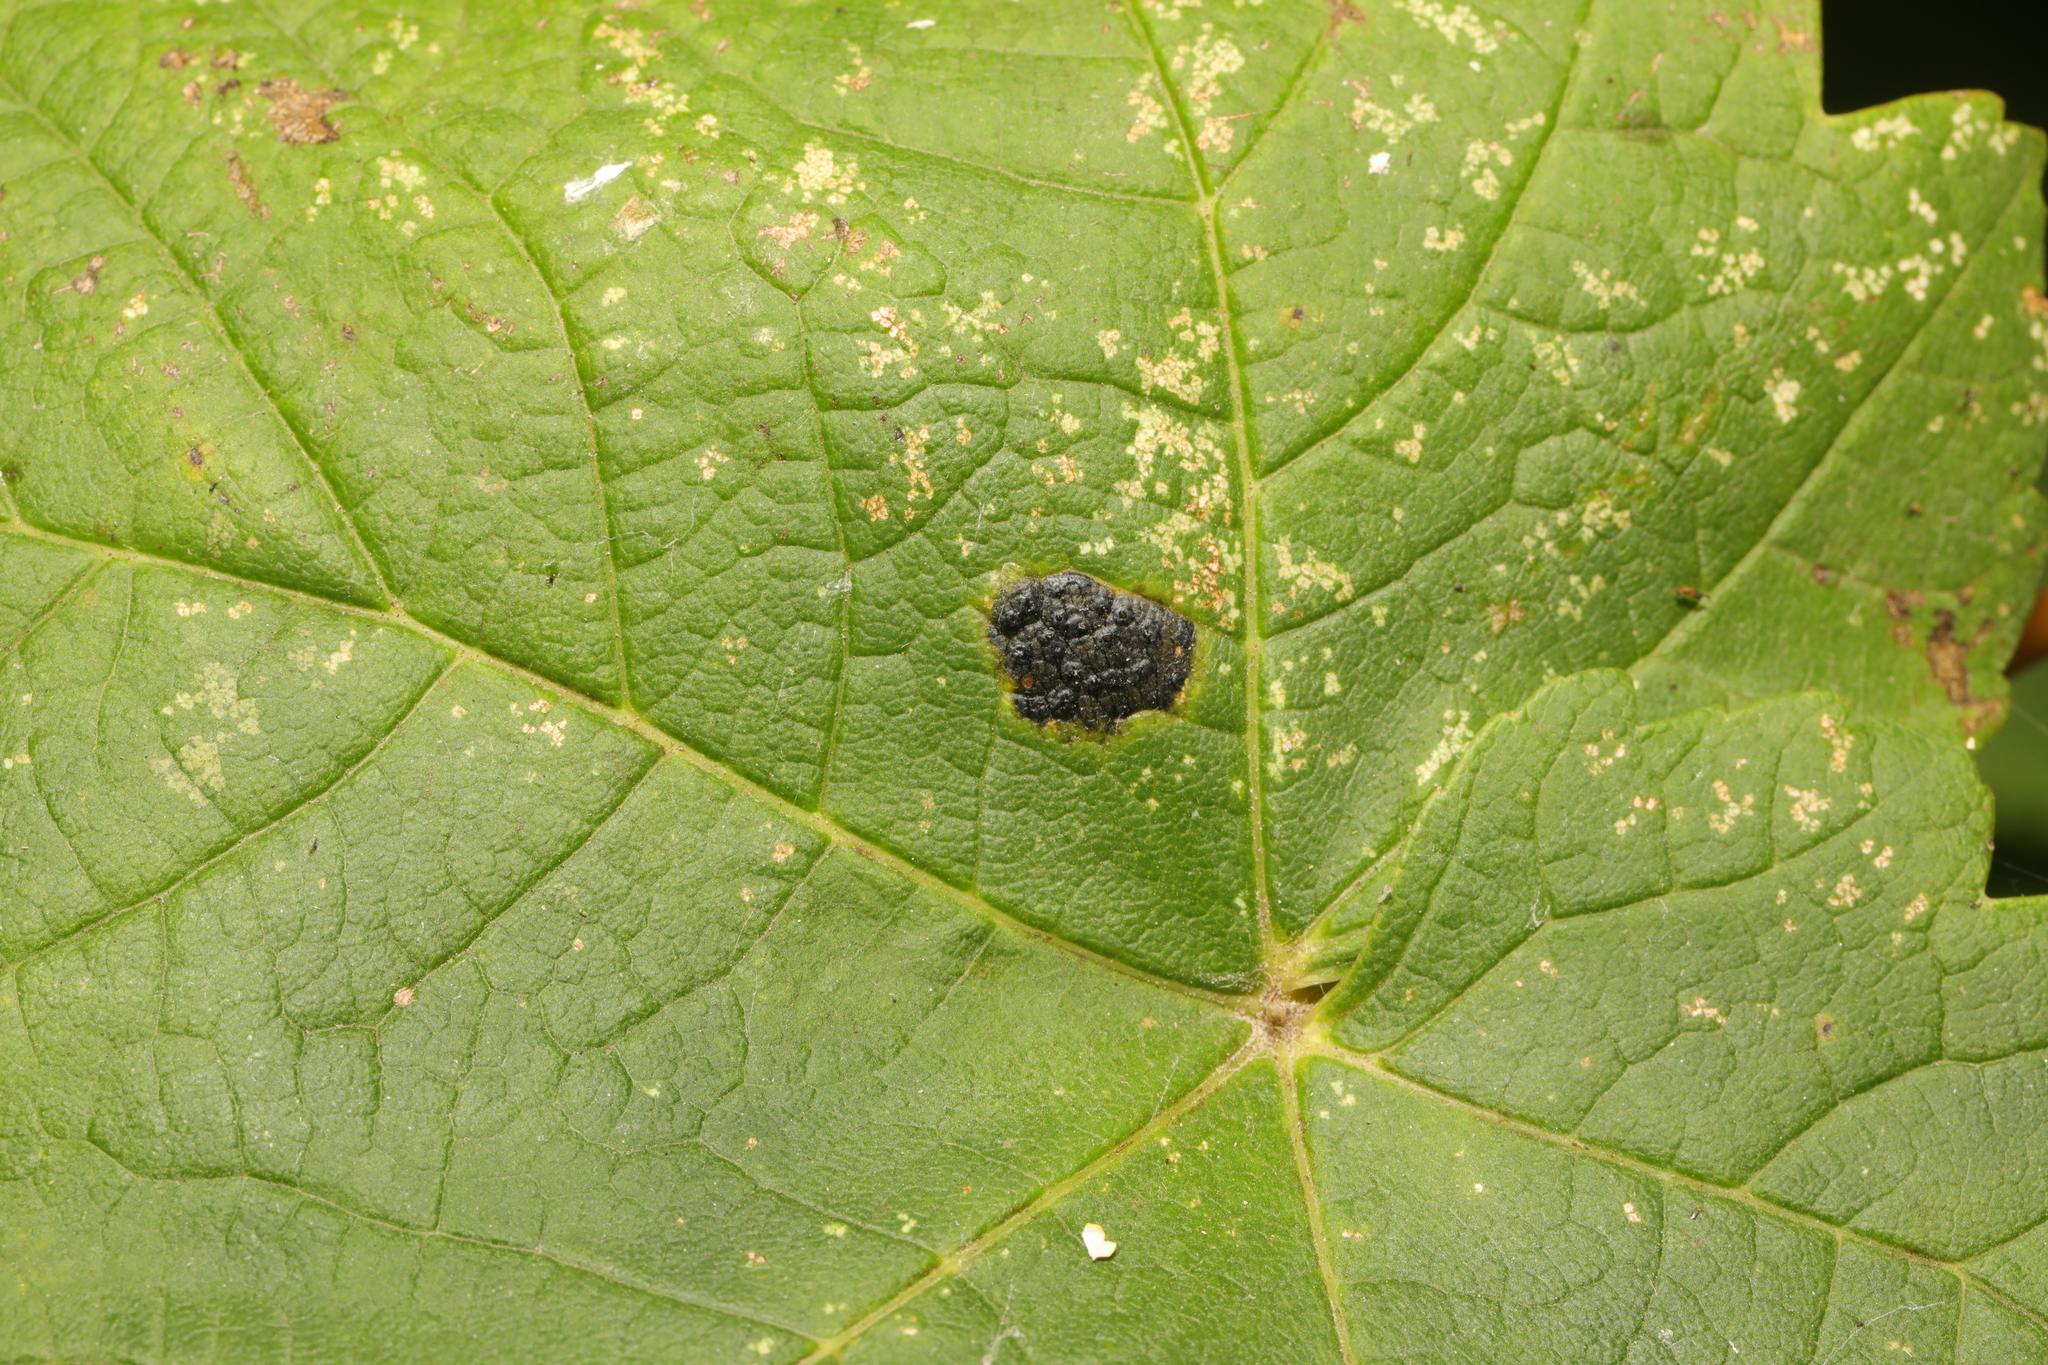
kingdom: Fungi
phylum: Ascomycota
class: Leotiomycetes
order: Rhytismatales
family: Rhytismataceae
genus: Rhytisma
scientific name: Rhytisma acerinum
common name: European tar spot
